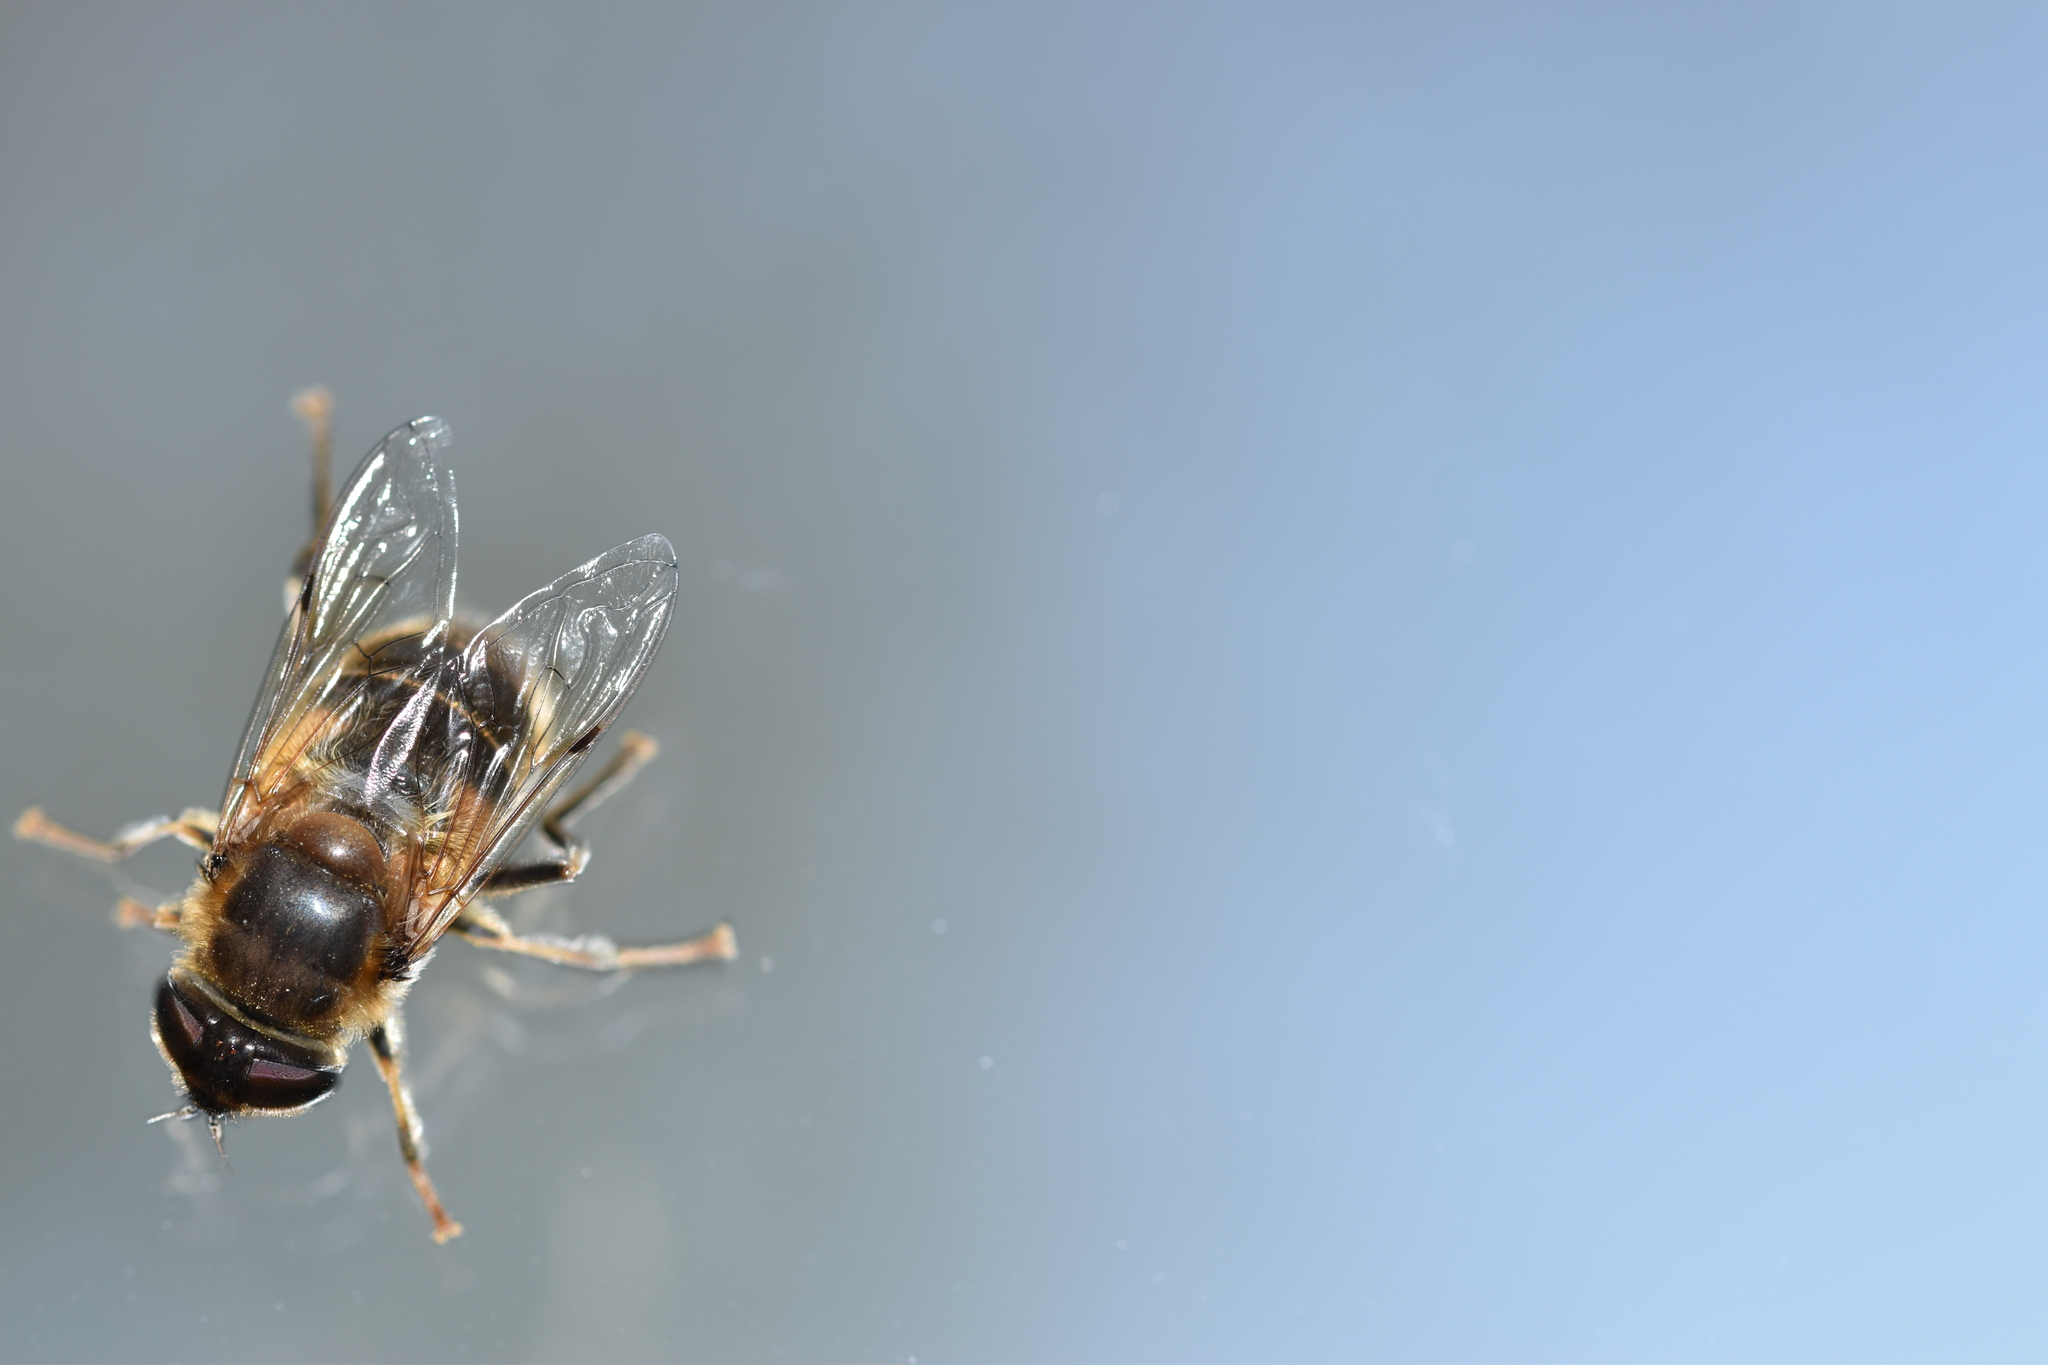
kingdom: Animalia
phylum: Arthropoda
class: Insecta
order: Diptera
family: Syrphidae
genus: Eristalis
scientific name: Eristalis pertinax
